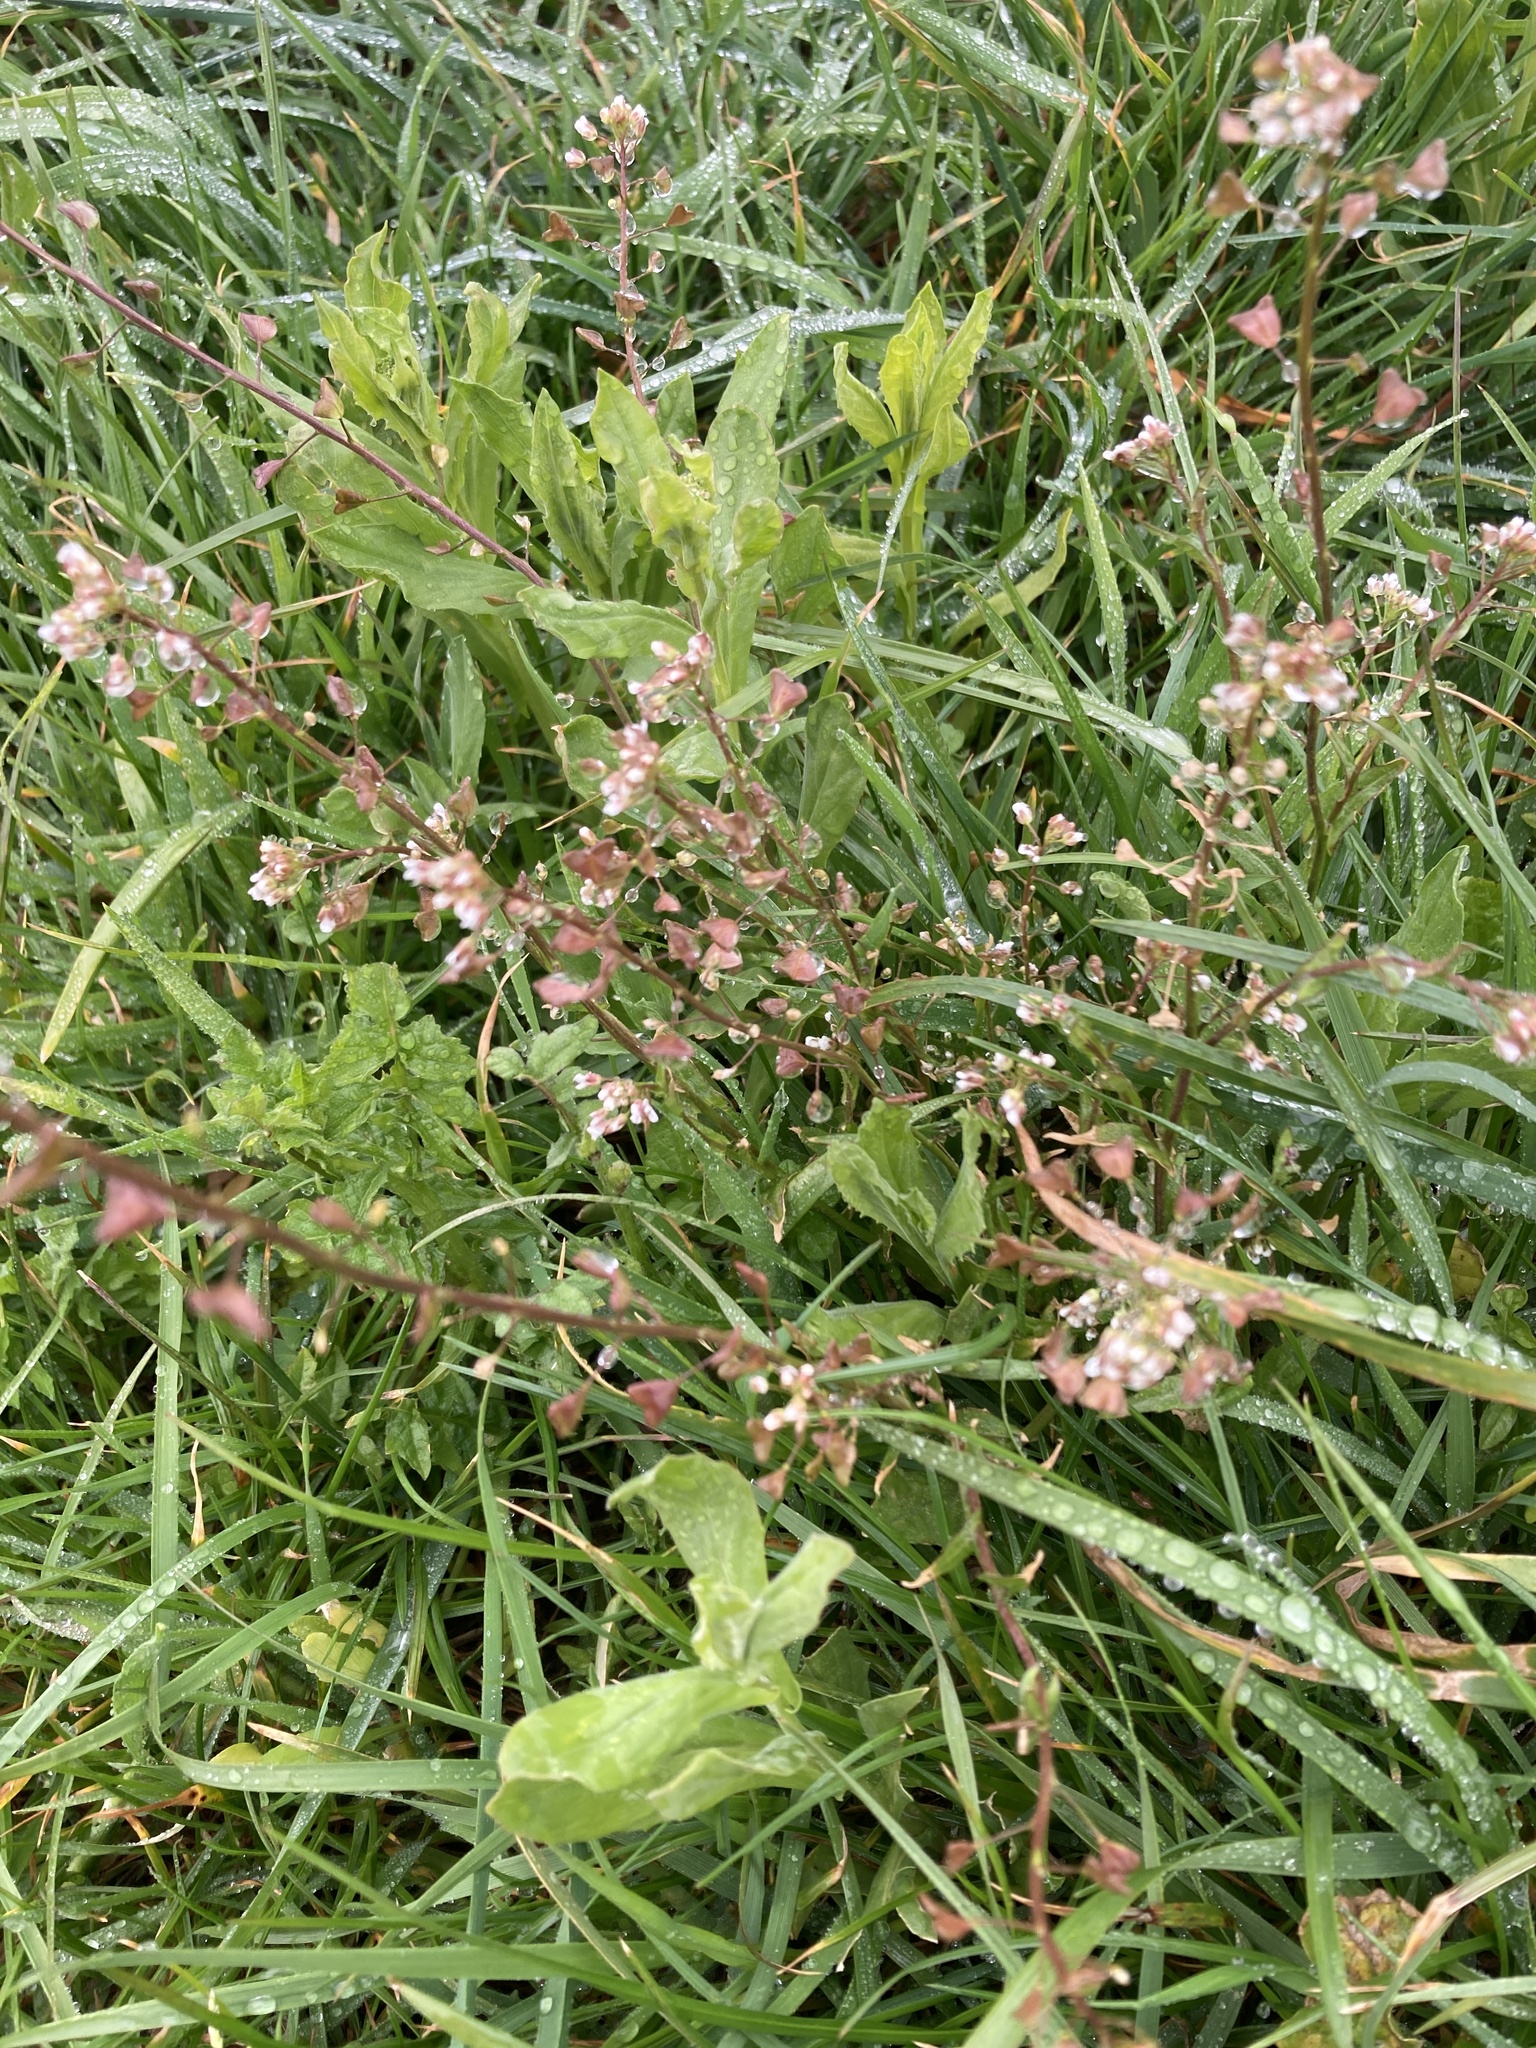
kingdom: Plantae
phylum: Tracheophyta
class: Magnoliopsida
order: Brassicales
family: Brassicaceae
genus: Capsella
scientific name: Capsella bursa-pastoris
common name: Shepherd's purse
